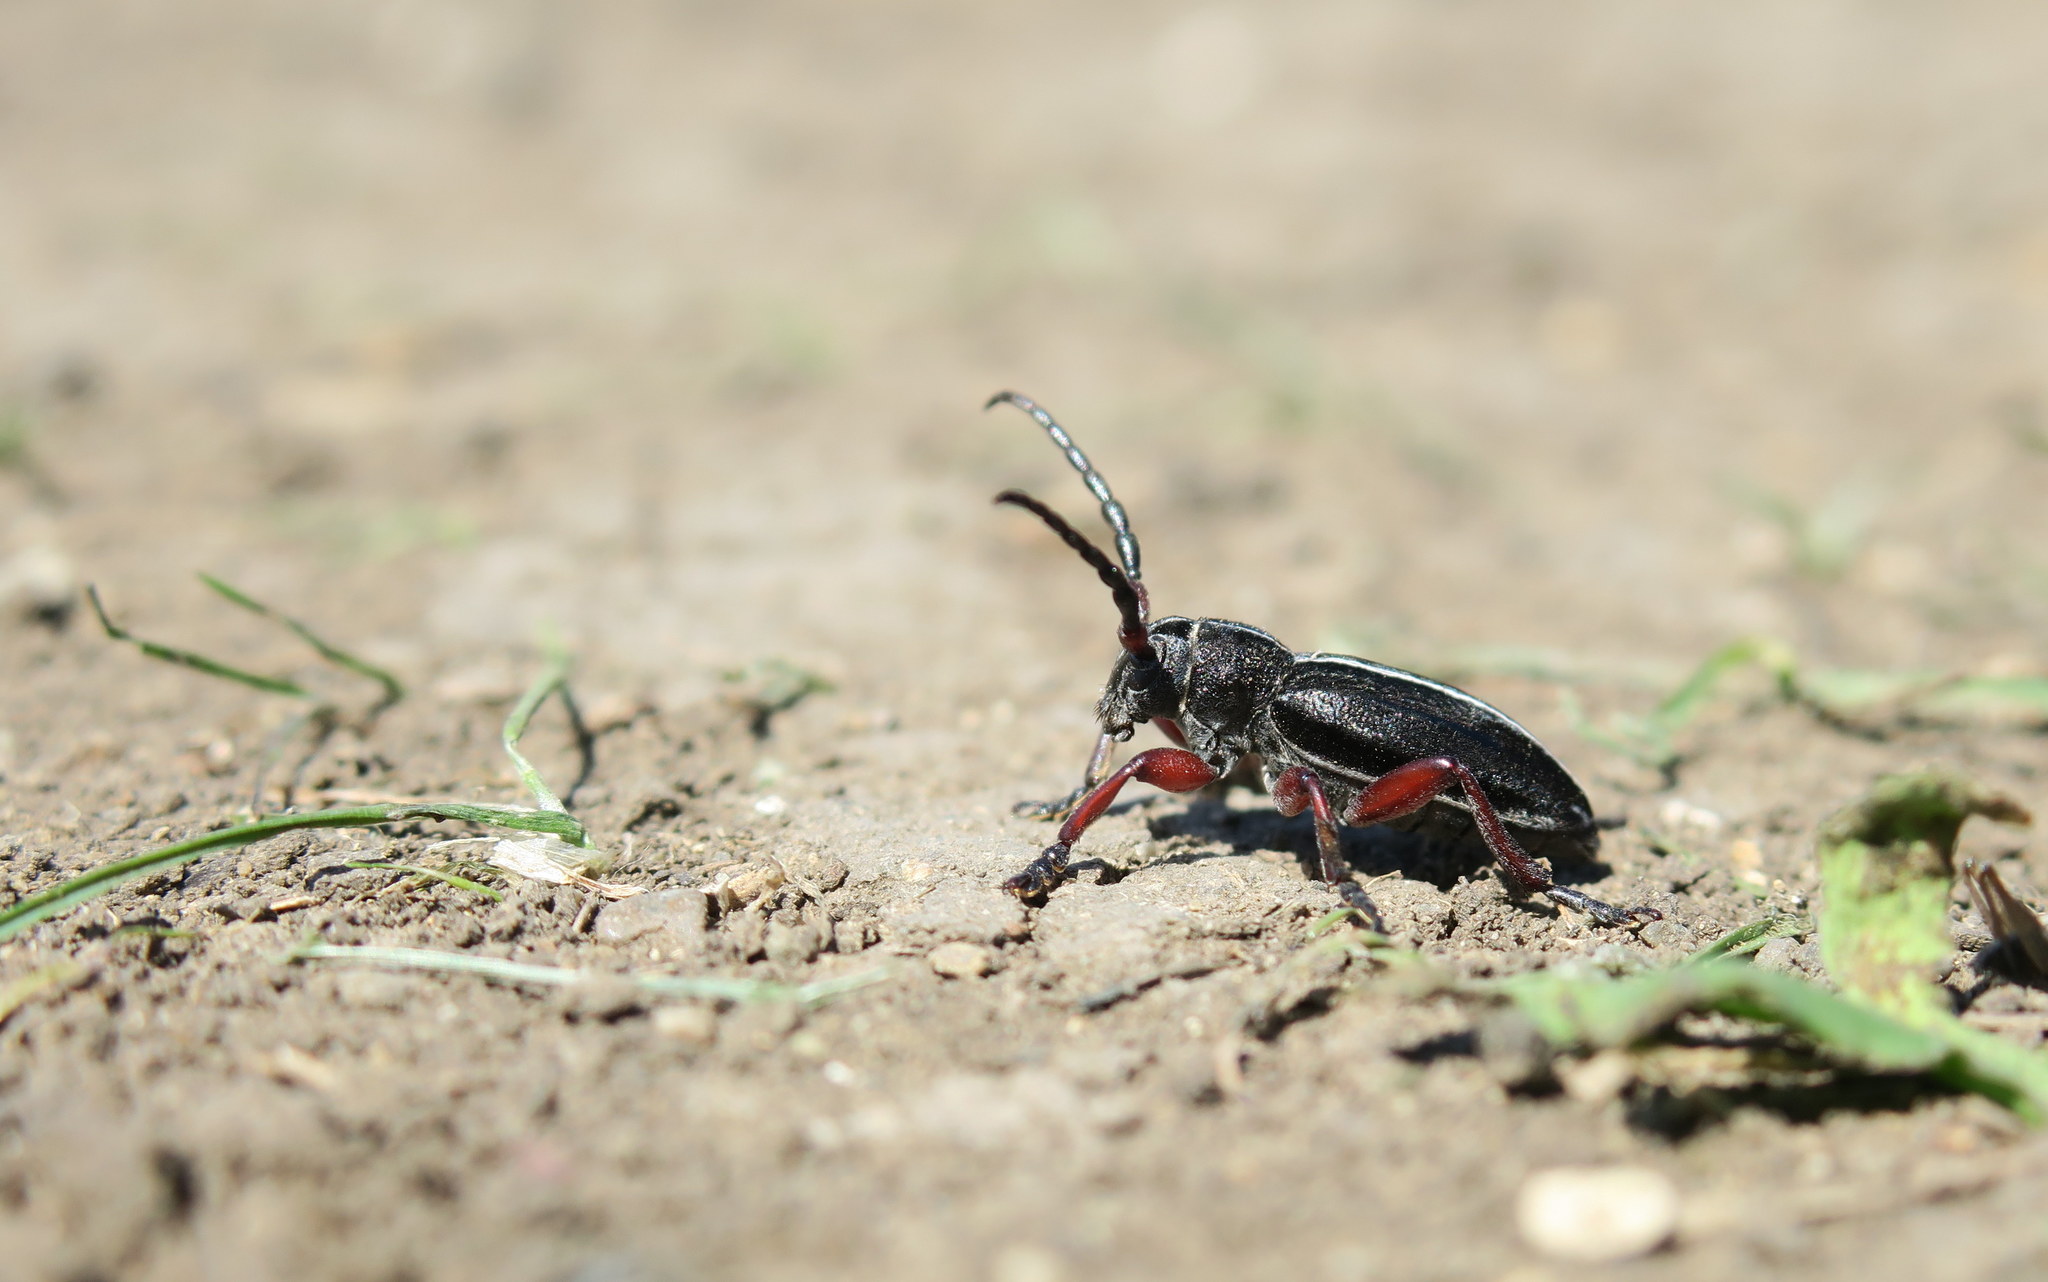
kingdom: Animalia
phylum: Arthropoda
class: Insecta
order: Coleoptera
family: Cerambycidae
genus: Dorcadion
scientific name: Dorcadion sulcipenne
